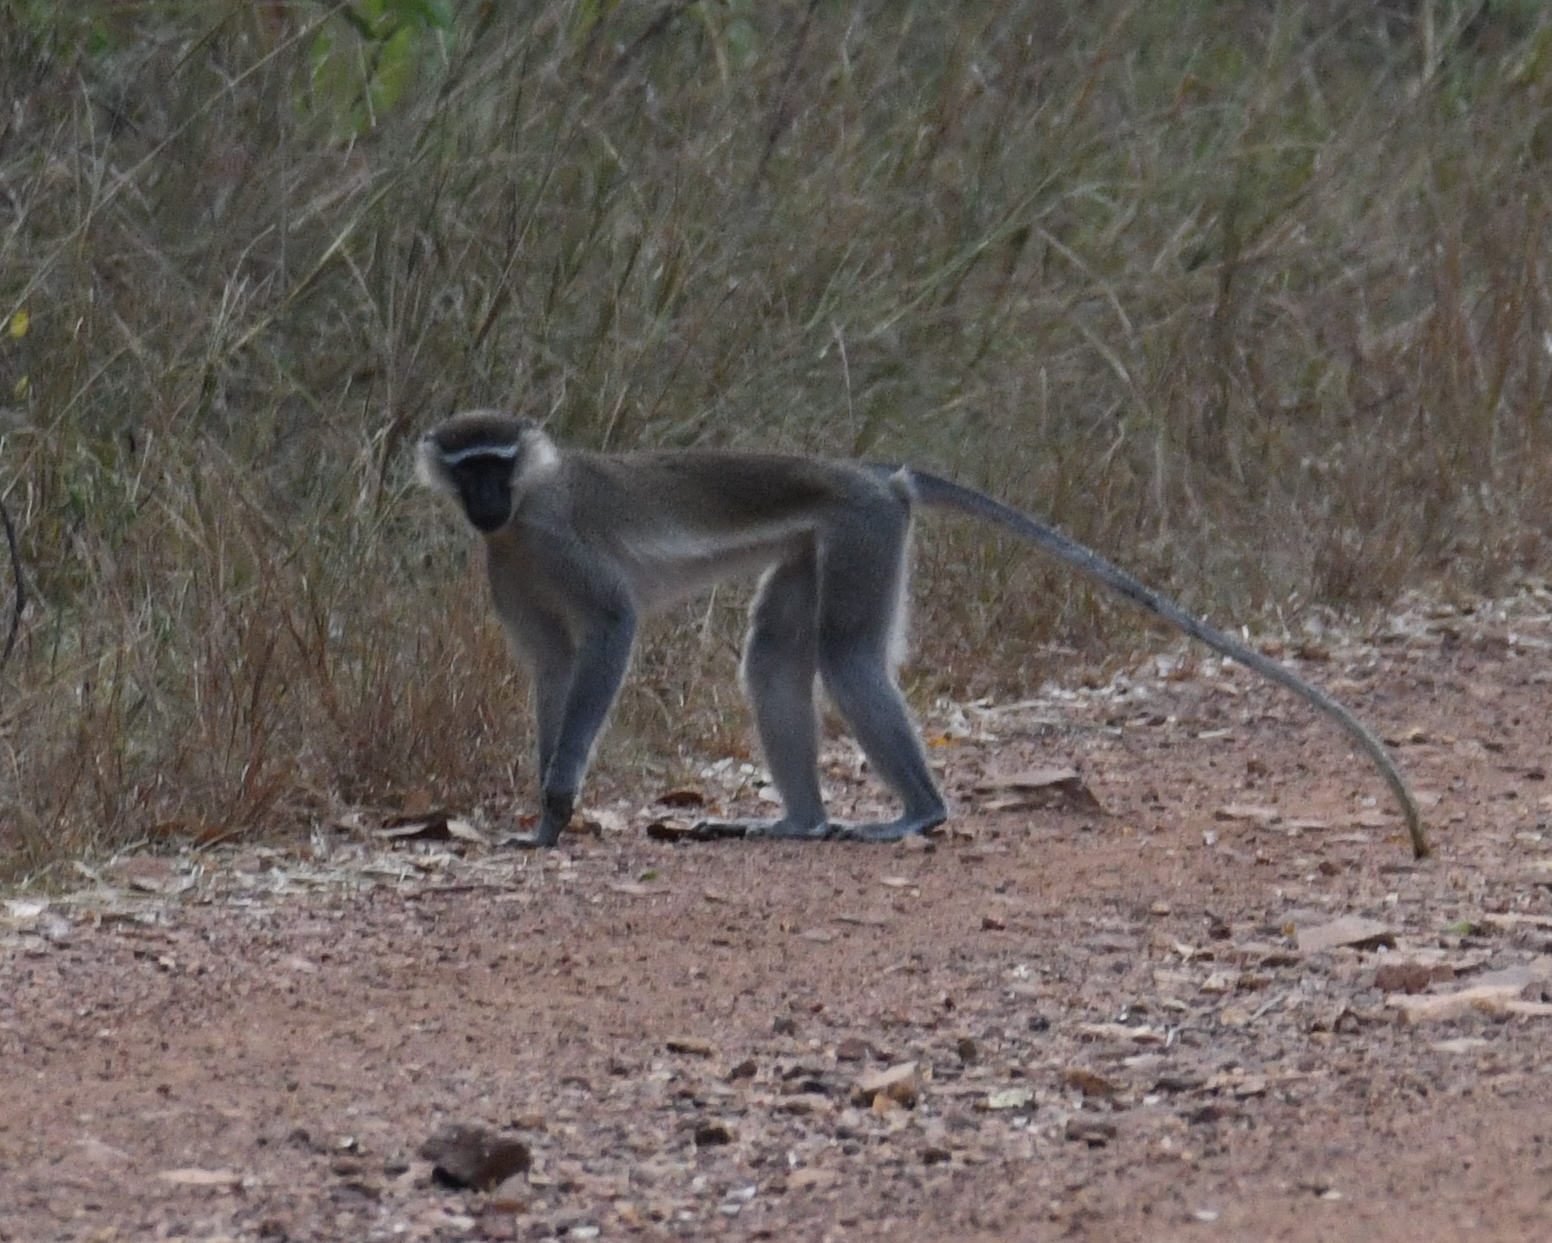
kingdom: Animalia
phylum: Chordata
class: Mammalia
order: Primates
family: Cercopithecidae
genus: Chlorocebus
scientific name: Chlorocebus tantalus
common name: Tantalus monkey
